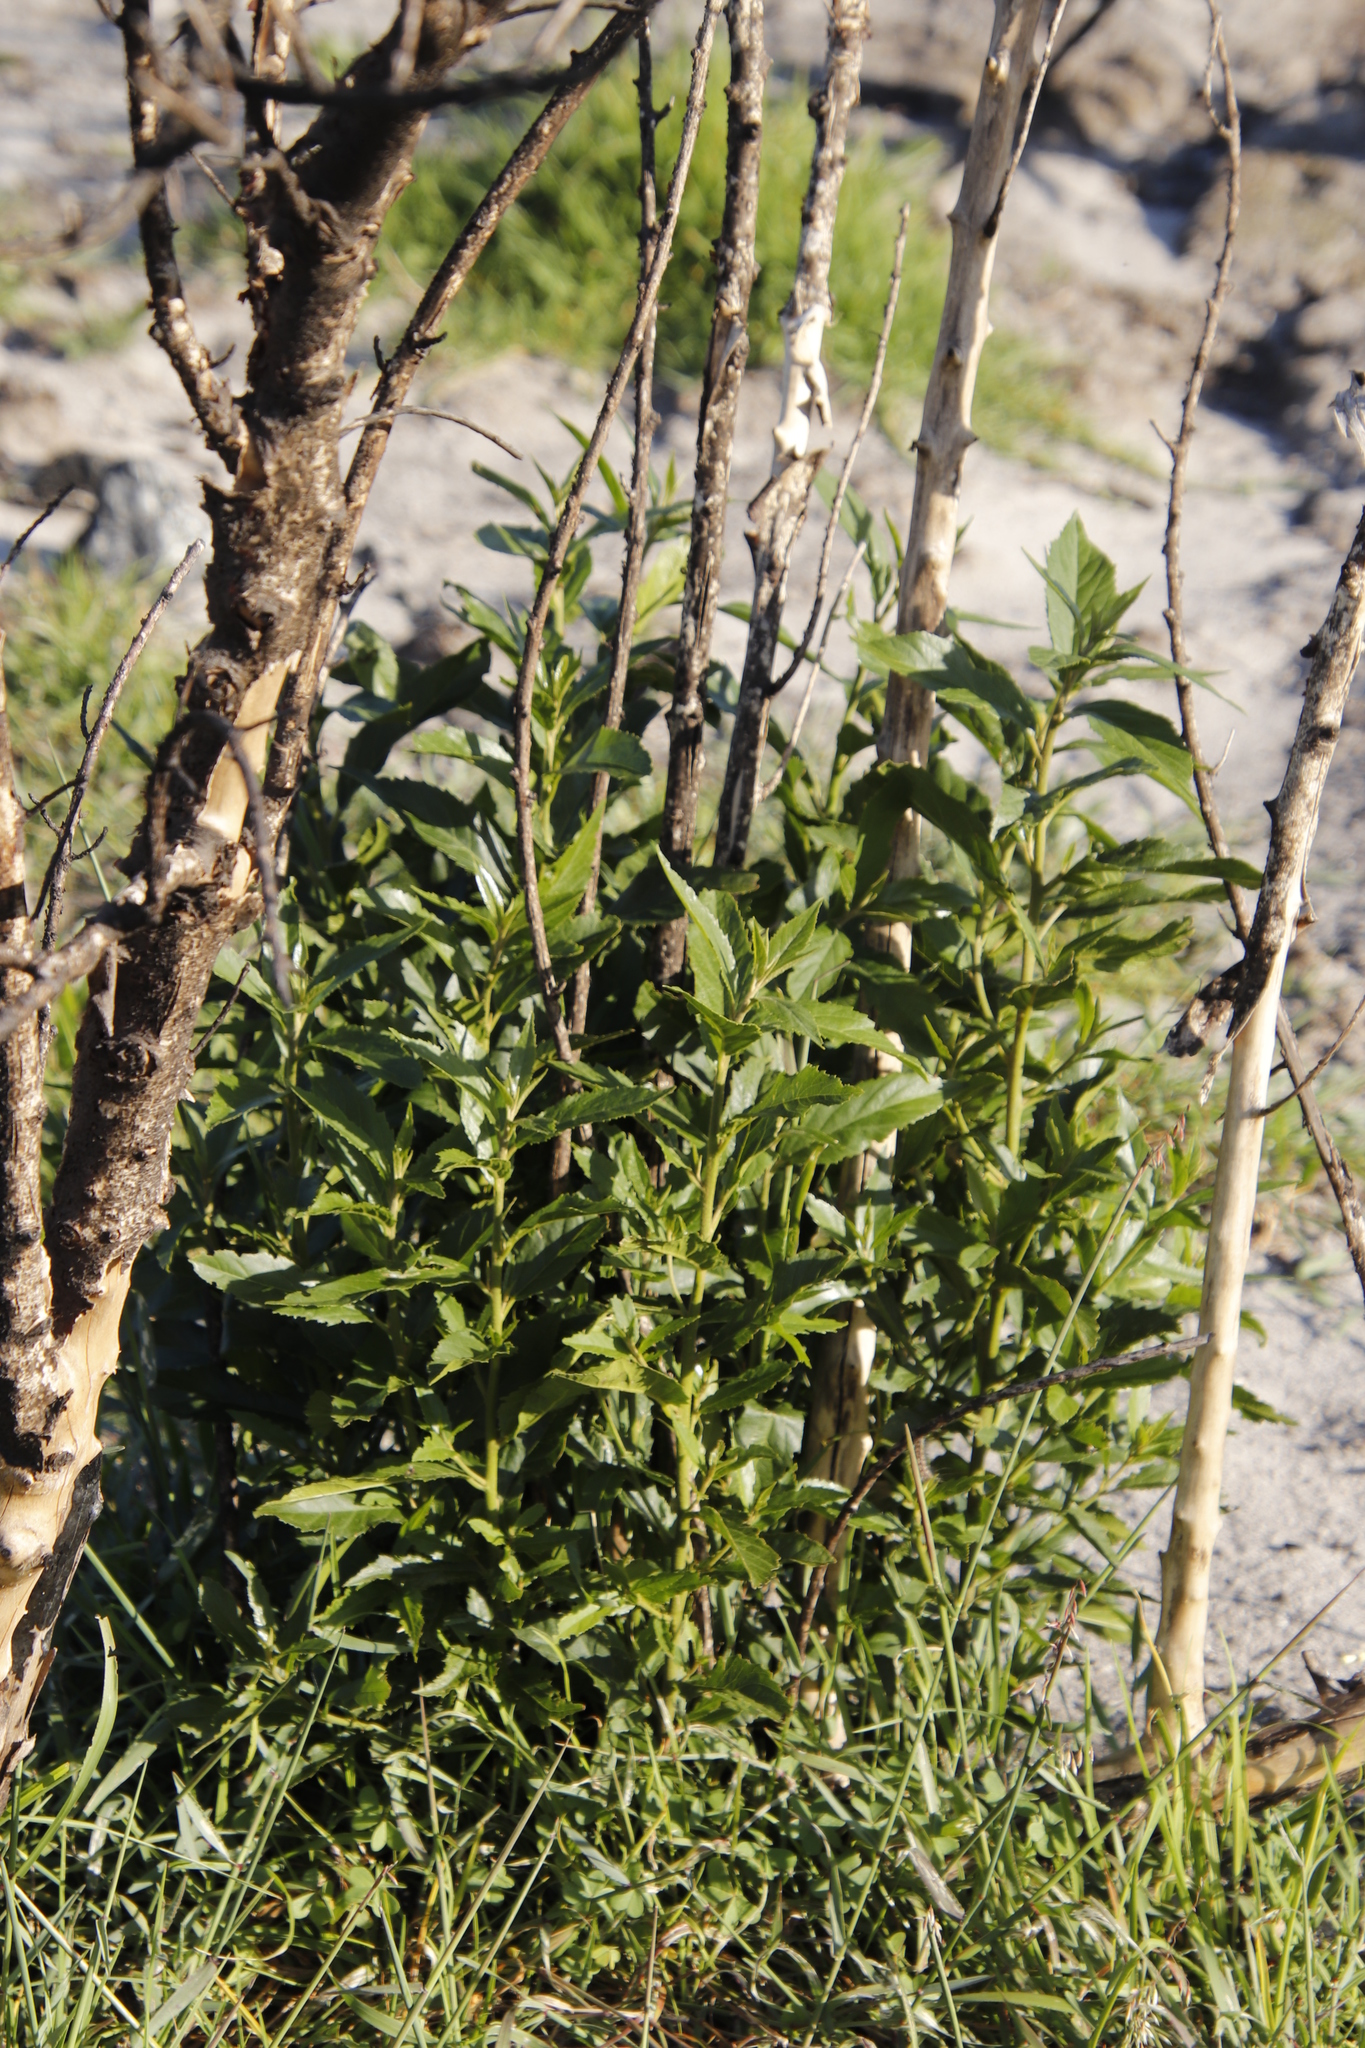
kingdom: Plantae
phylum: Tracheophyta
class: Magnoliopsida
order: Malpighiales
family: Achariaceae
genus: Kiggelaria
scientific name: Kiggelaria africana
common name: Wild peach
